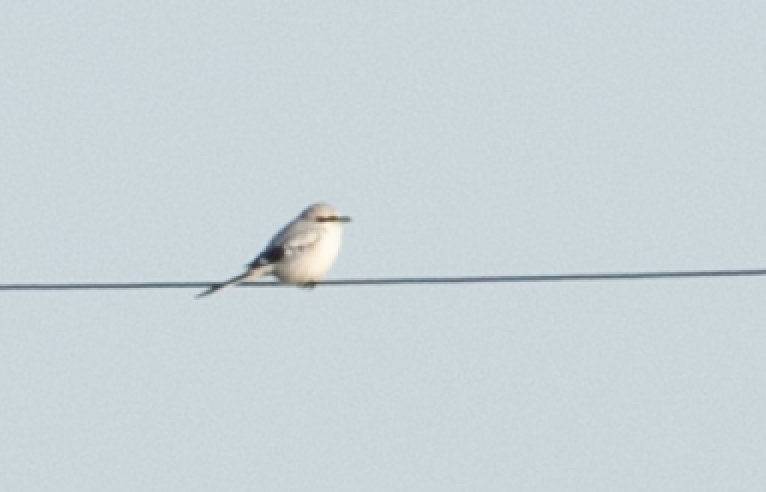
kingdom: Animalia
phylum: Chordata
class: Aves
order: Passeriformes
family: Laniidae
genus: Lanius
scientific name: Lanius excubitor
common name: Great grey shrike
